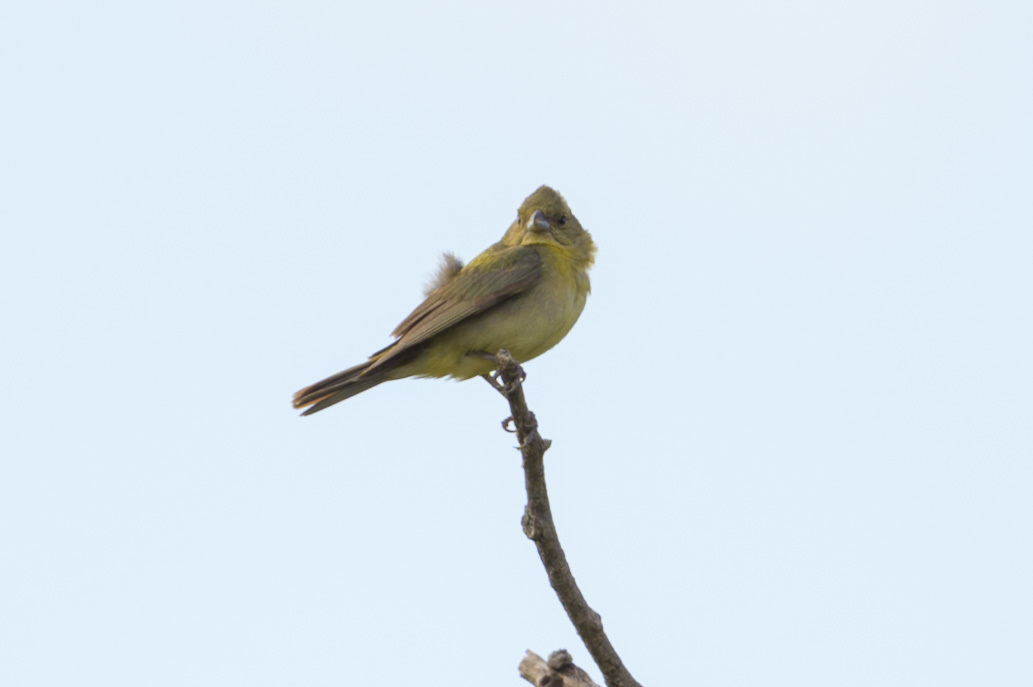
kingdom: Animalia
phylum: Chordata
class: Aves
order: Passeriformes
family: Cardinalidae
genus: Passerina
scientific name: Passerina ciris
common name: Painted bunting
